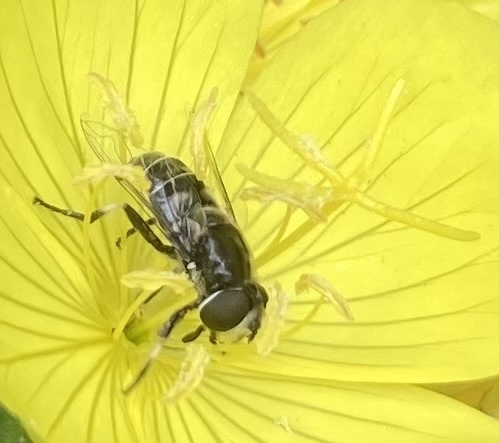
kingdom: Animalia
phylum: Arthropoda
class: Insecta
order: Diptera
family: Syrphidae
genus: Eristalis
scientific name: Eristalis dimidiata
